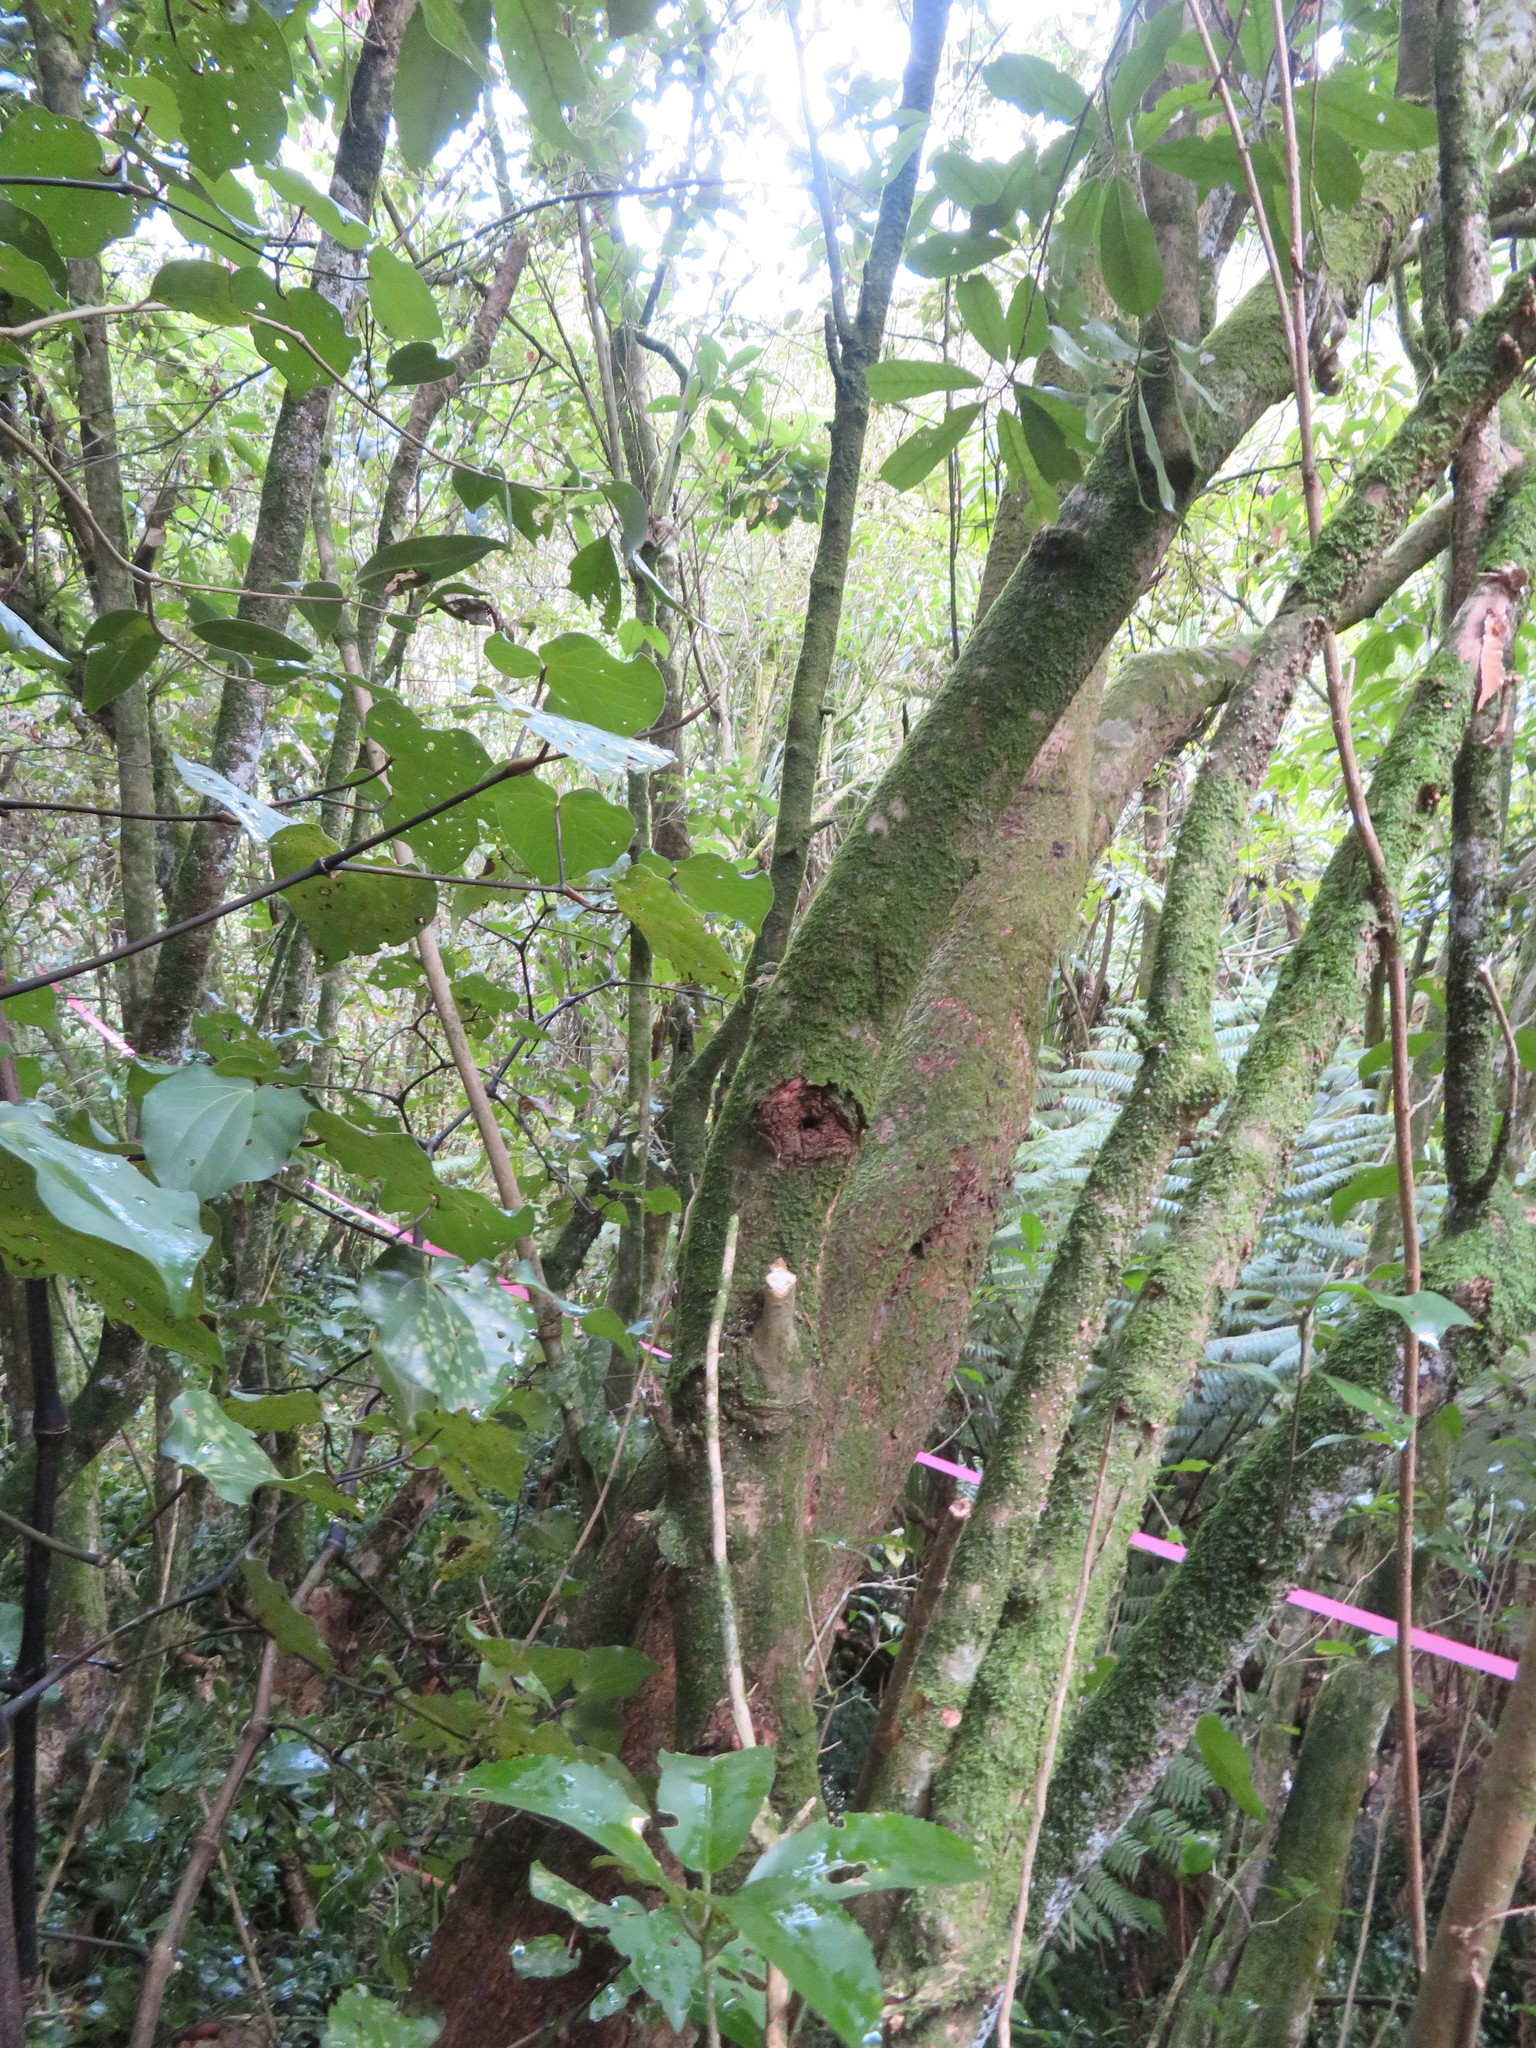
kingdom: Plantae
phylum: Tracheophyta
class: Magnoliopsida
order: Malpighiales
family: Violaceae
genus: Melicytus
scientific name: Melicytus ramiflorus
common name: Mahoe
